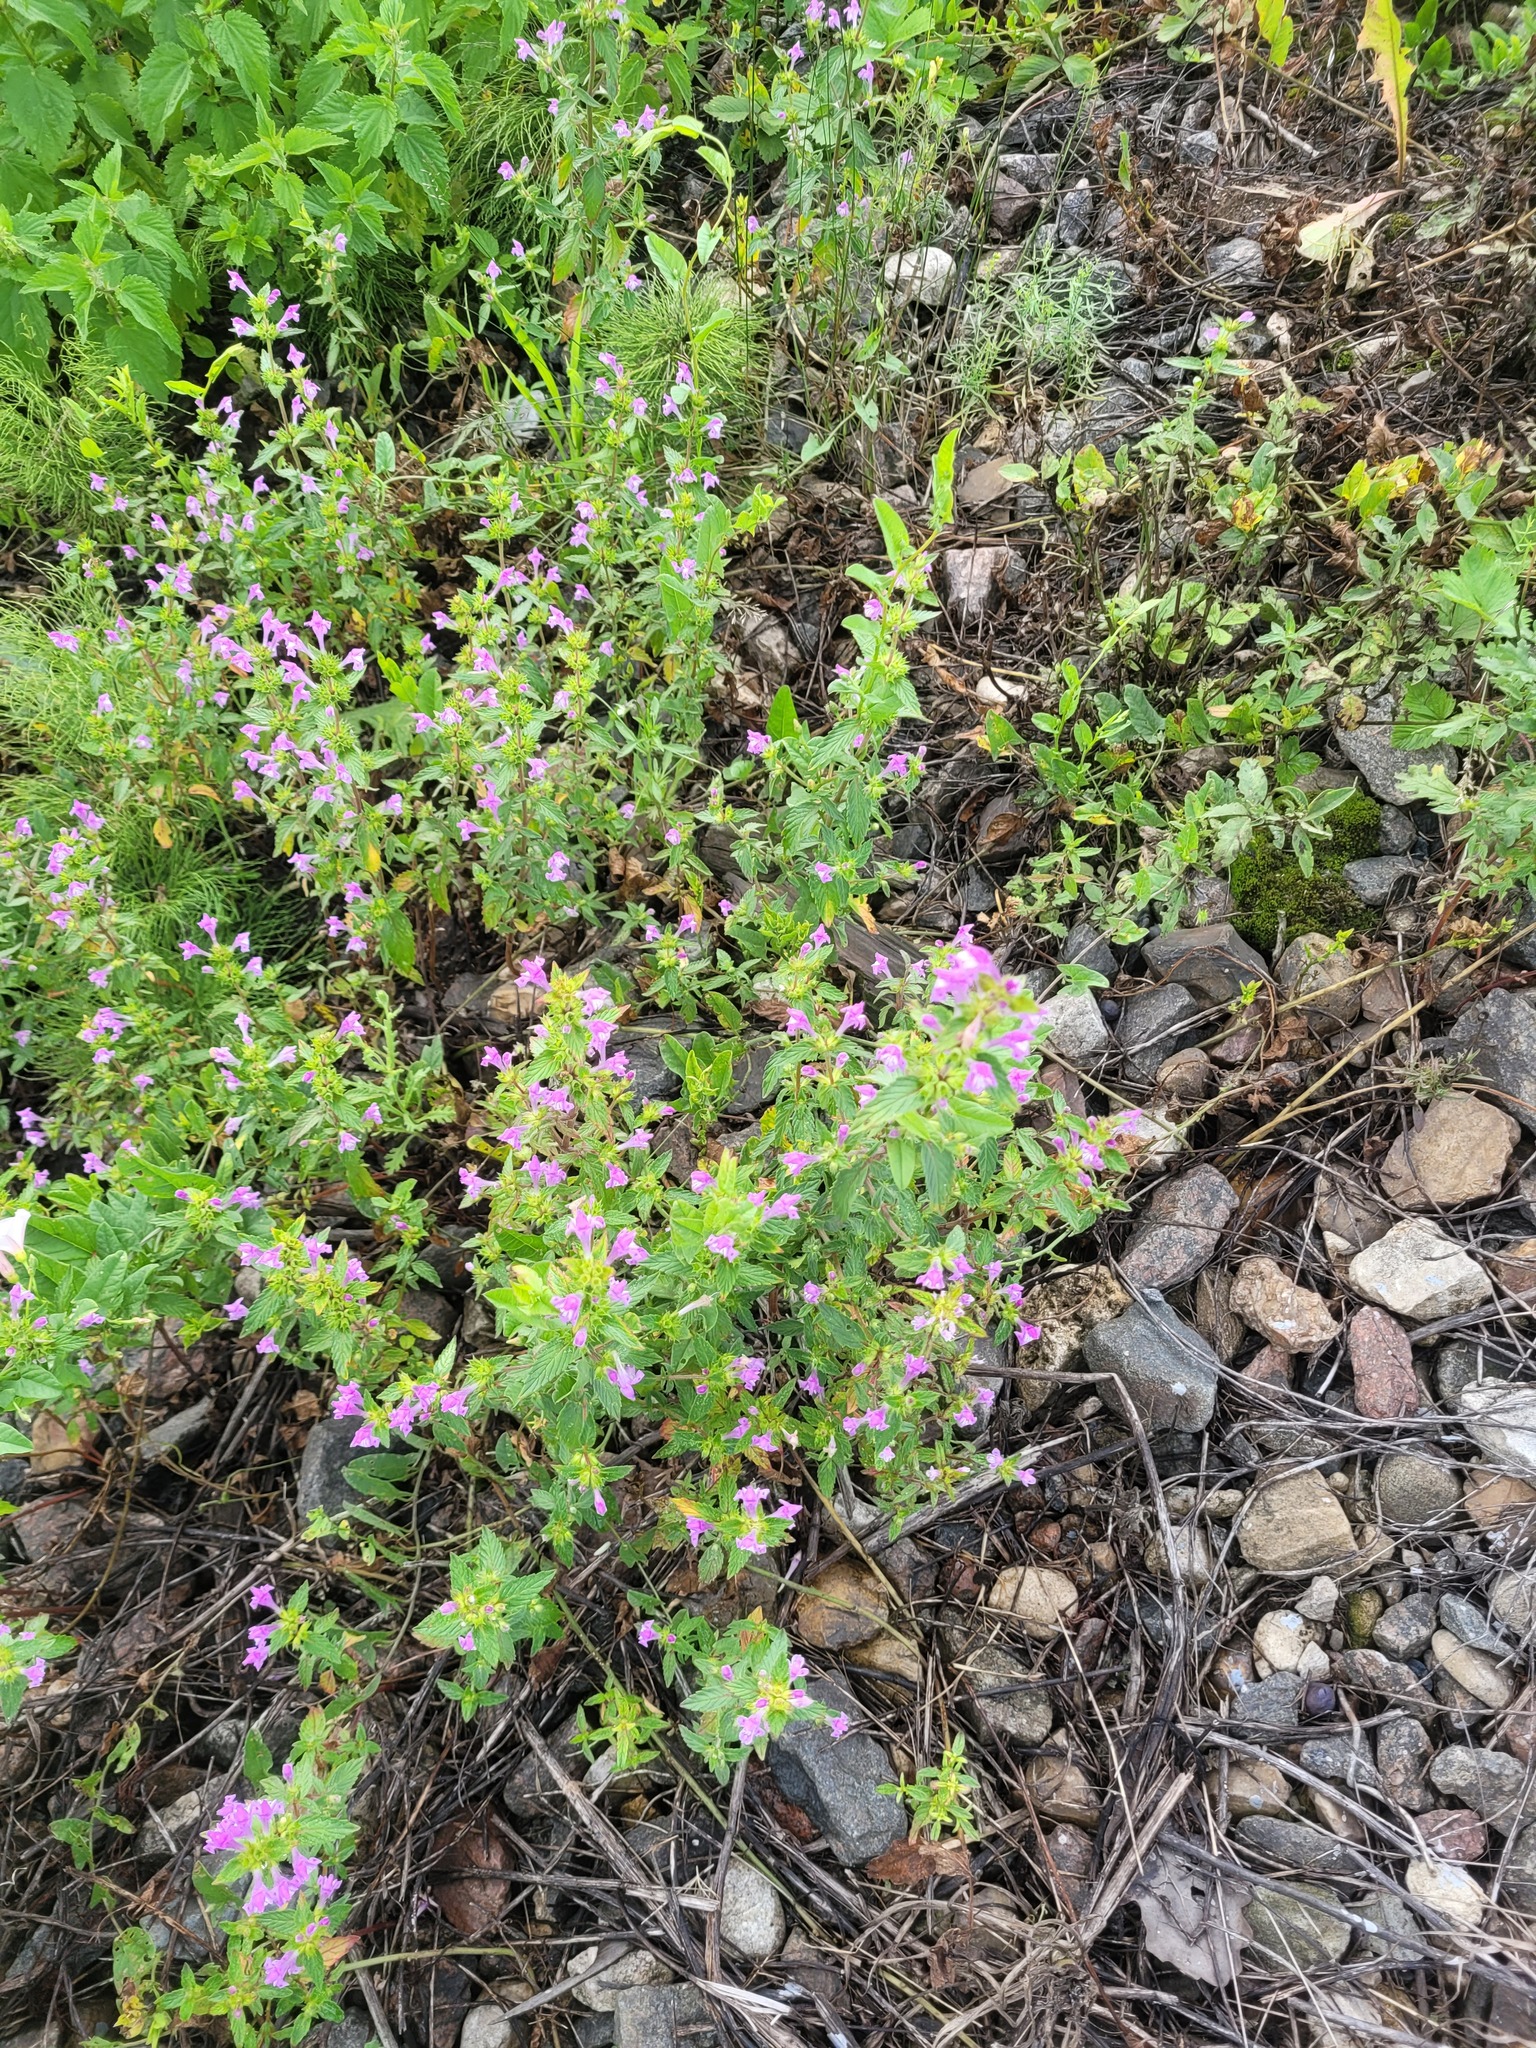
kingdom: Plantae
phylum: Tracheophyta
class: Magnoliopsida
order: Lamiales
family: Lamiaceae
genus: Galeopsis
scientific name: Galeopsis ladanum
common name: Broad-leaved hemp-nettle
